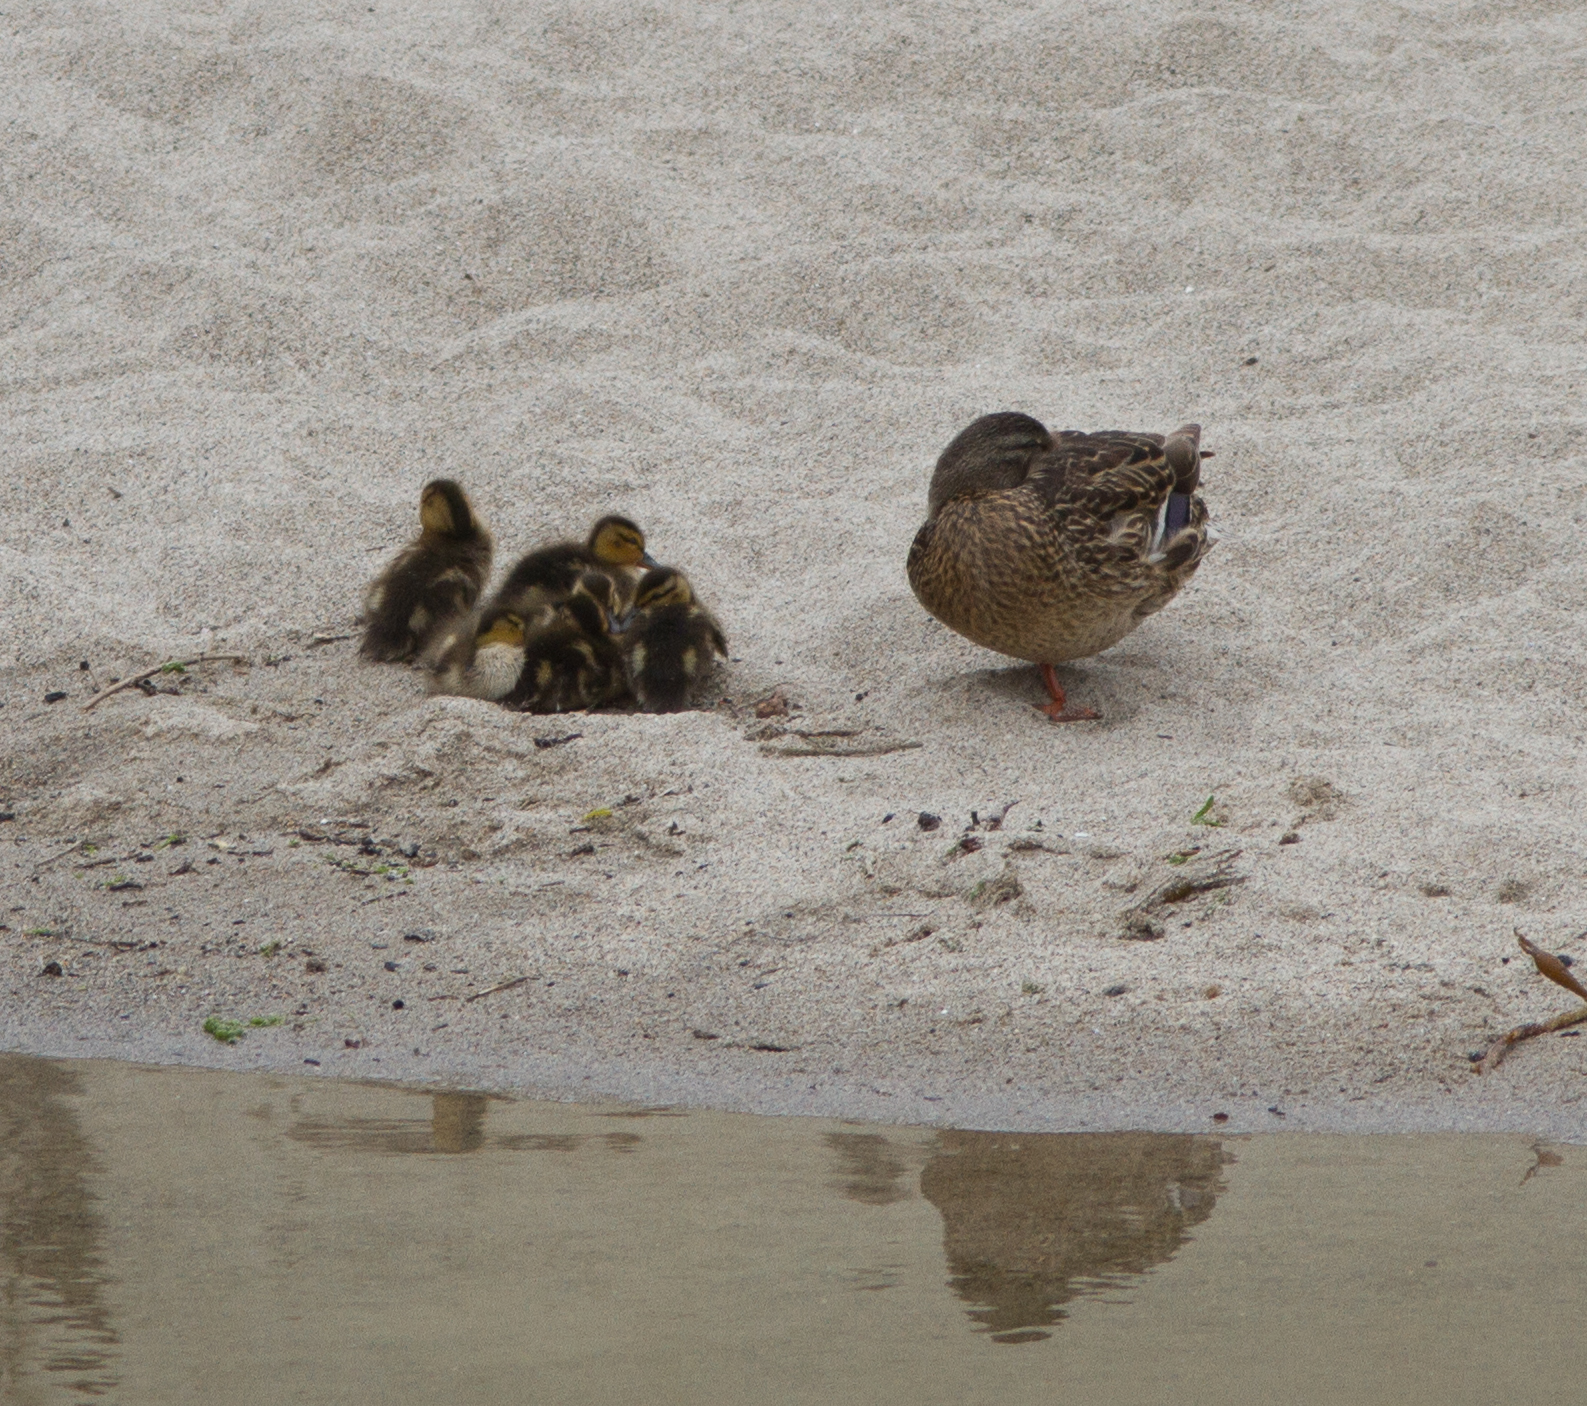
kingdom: Animalia
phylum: Chordata
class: Aves
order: Anseriformes
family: Anatidae
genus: Anas
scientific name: Anas platyrhynchos
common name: Mallard
